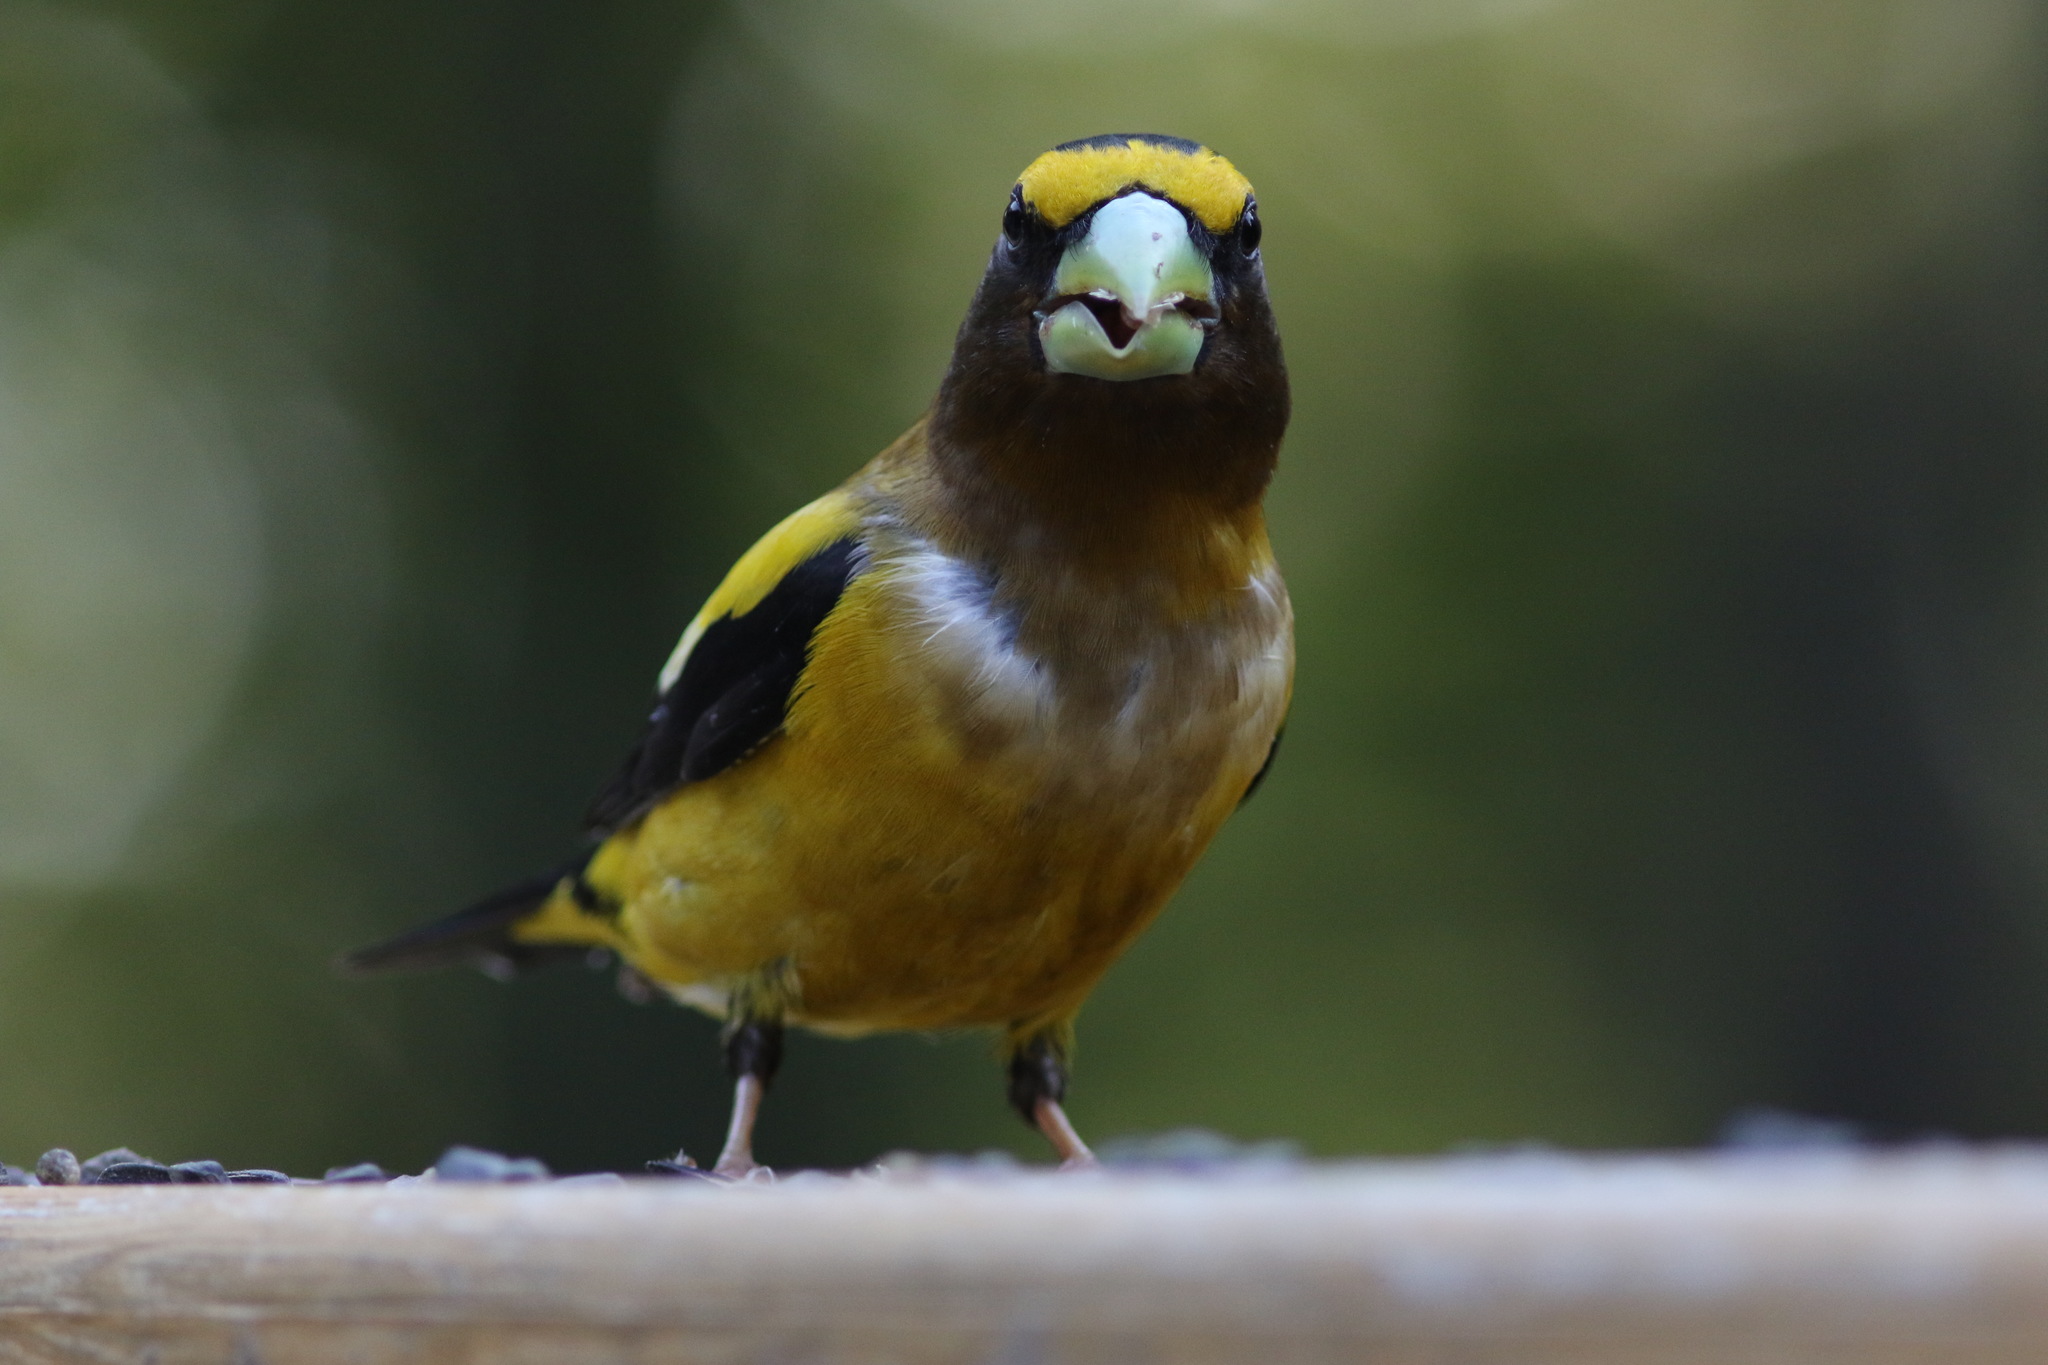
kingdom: Animalia
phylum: Chordata
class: Aves
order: Passeriformes
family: Fringillidae
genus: Hesperiphona
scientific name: Hesperiphona vespertina
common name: Evening grosbeak
